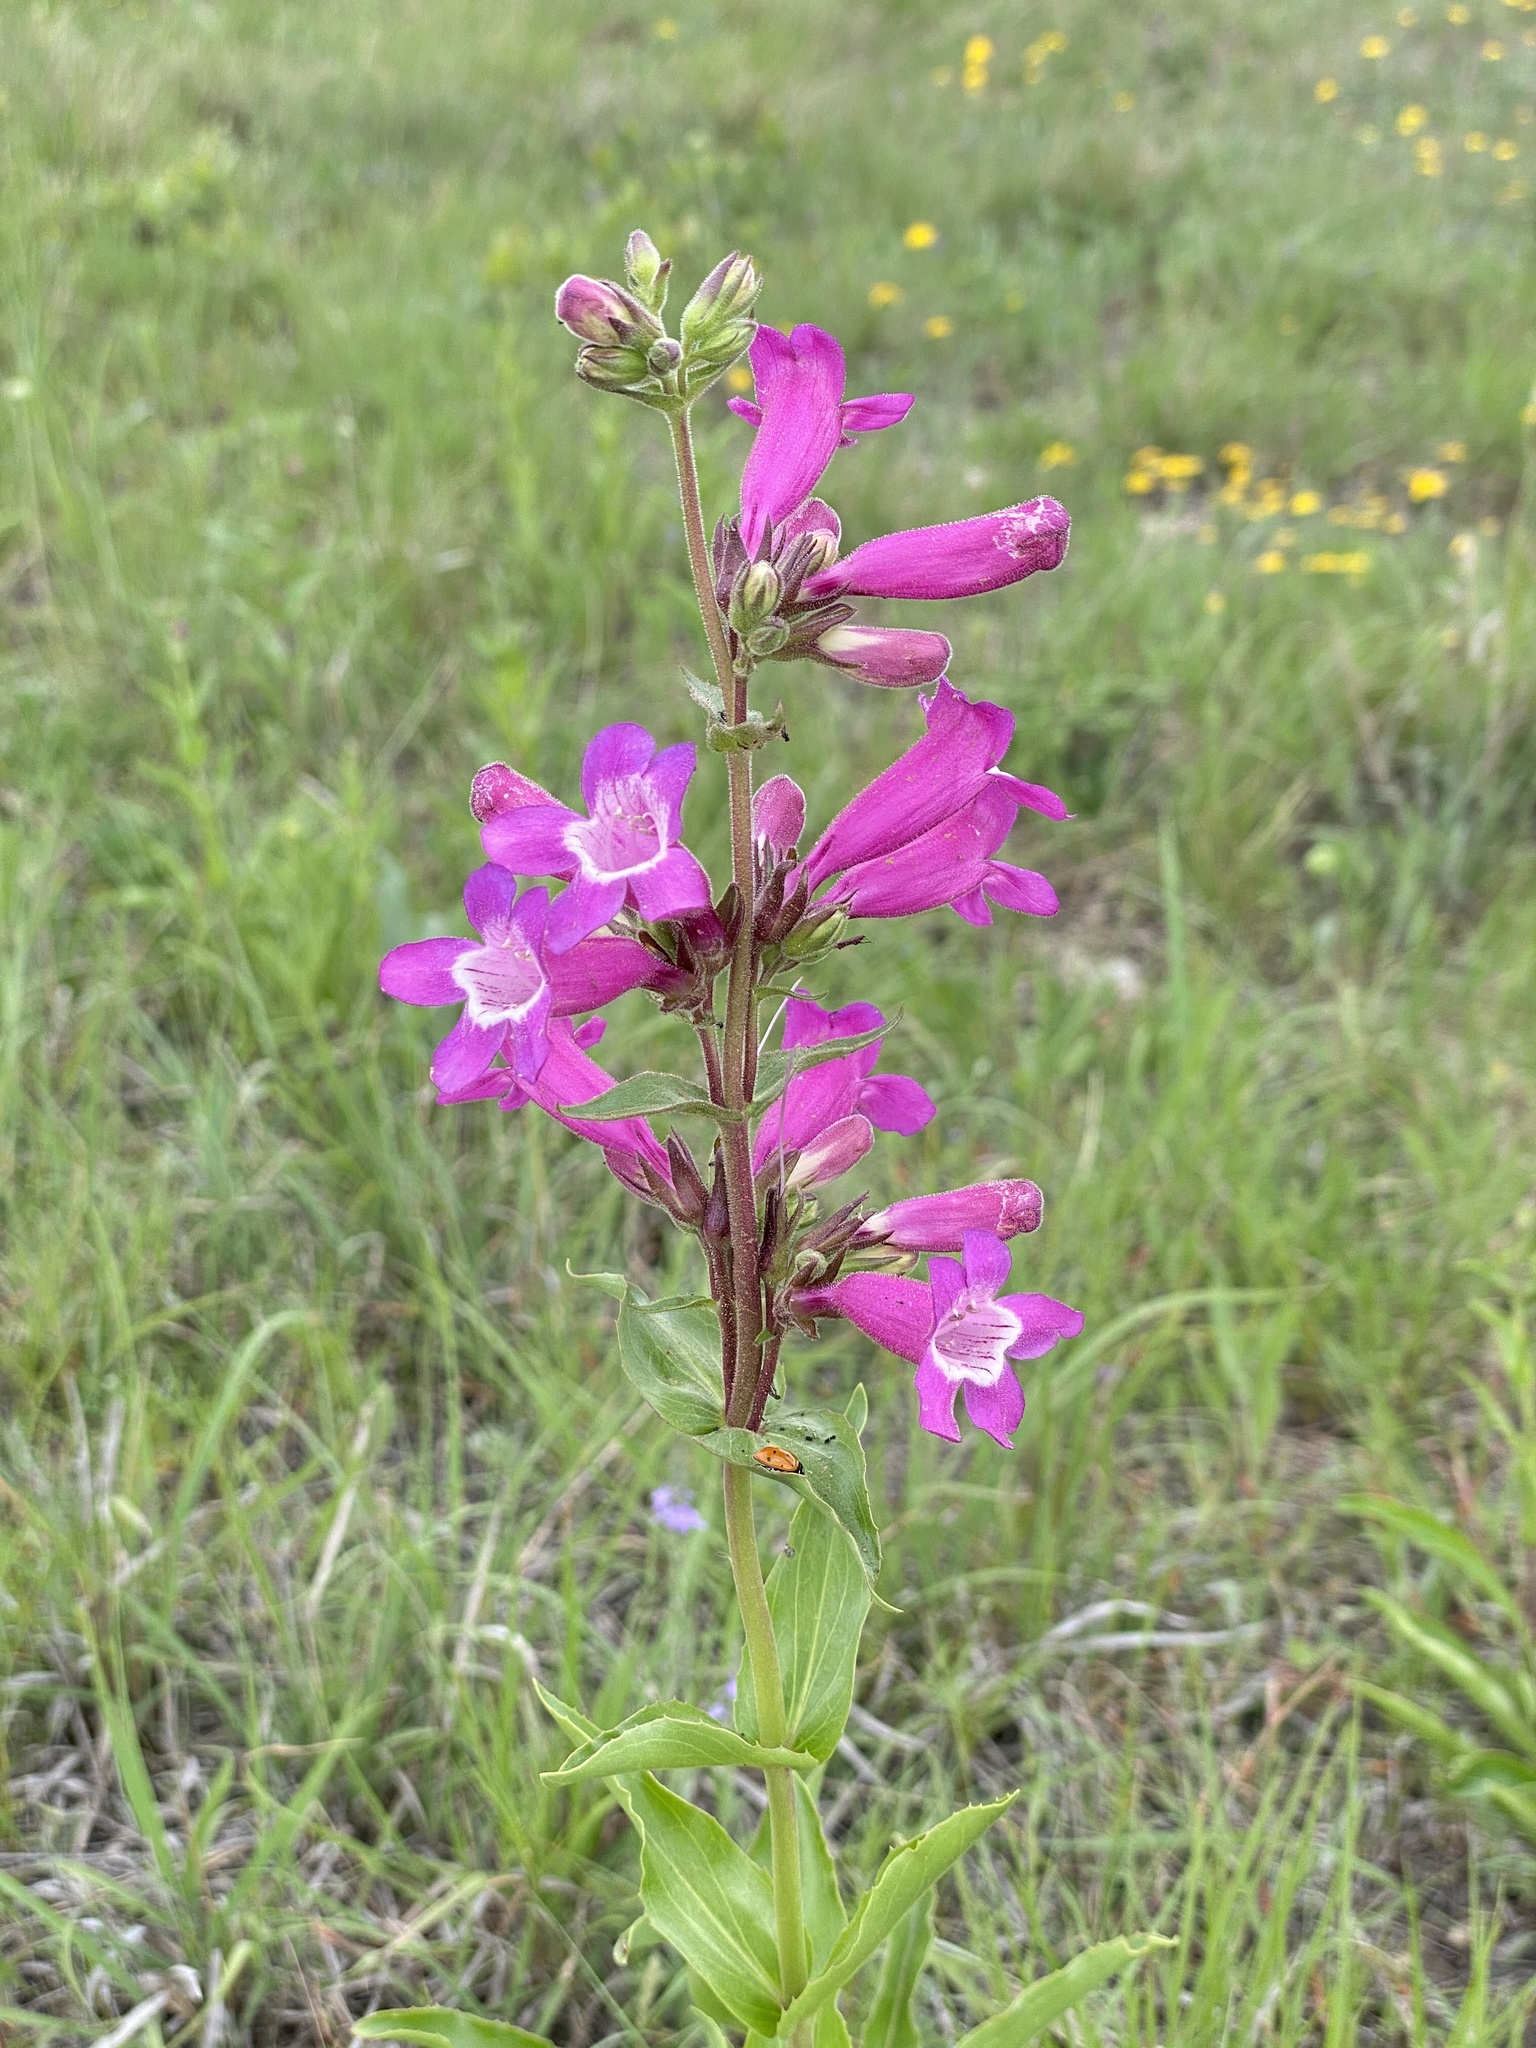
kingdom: Plantae
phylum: Tracheophyta
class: Magnoliopsida
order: Lamiales
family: Plantaginaceae
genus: Penstemon
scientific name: Penstemon triflorus
